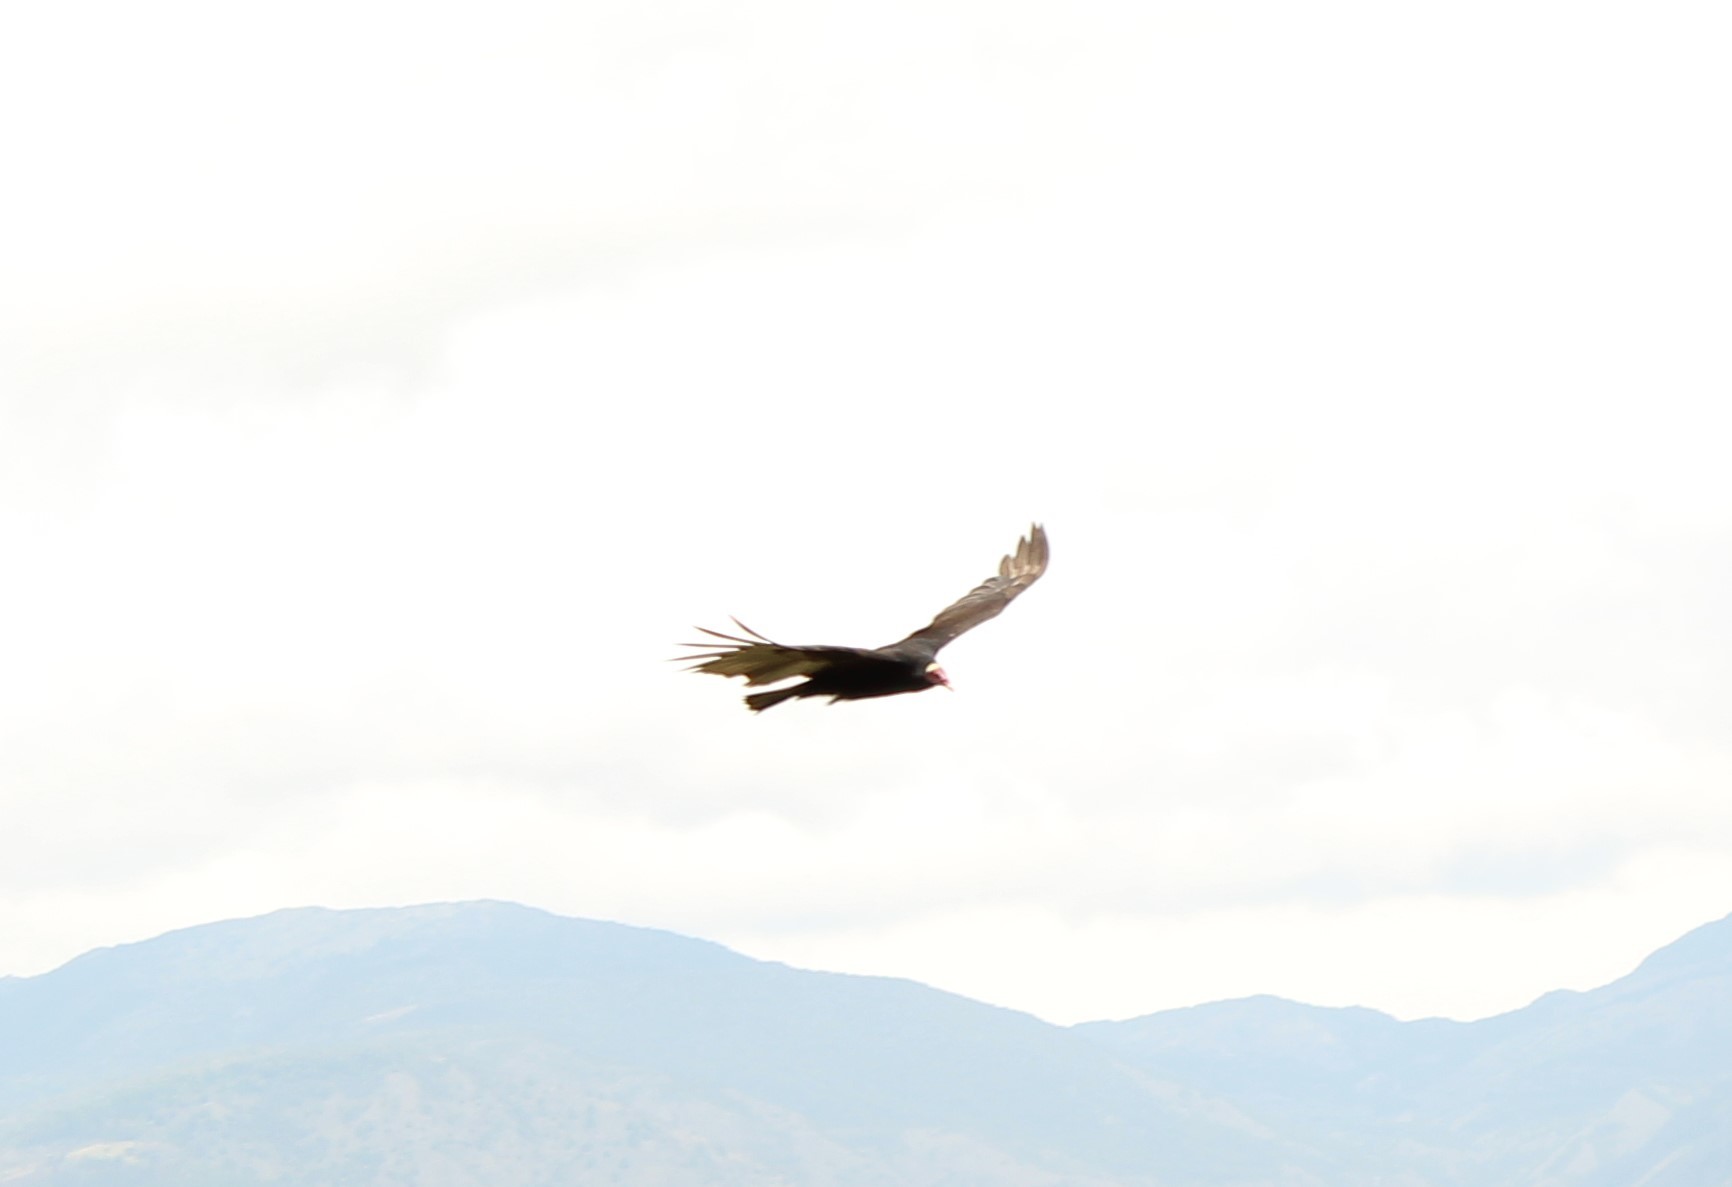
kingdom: Animalia
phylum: Chordata
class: Aves
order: Accipitriformes
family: Cathartidae
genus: Cathartes
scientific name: Cathartes aura
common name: Turkey vulture
